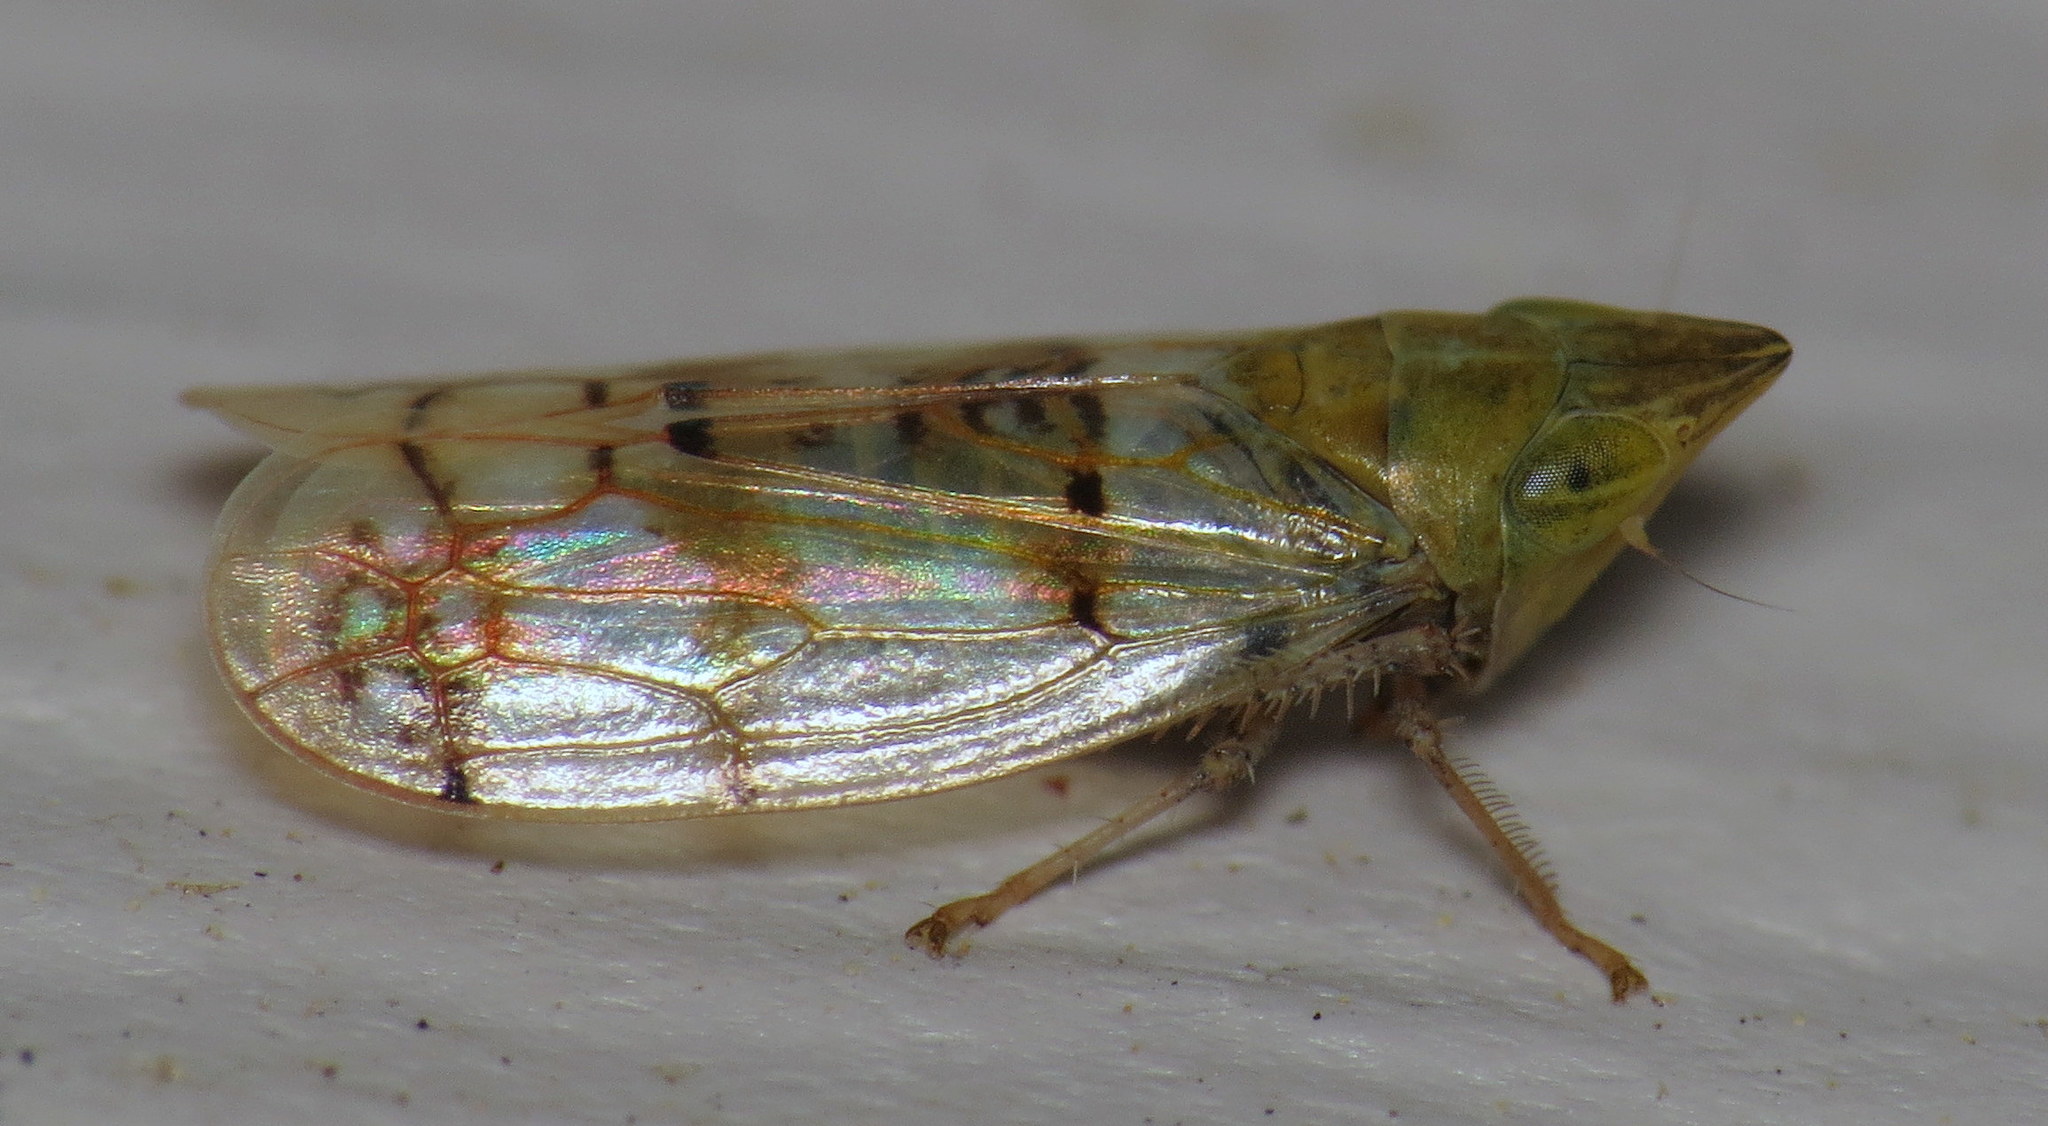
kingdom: Animalia
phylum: Arthropoda
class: Insecta
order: Hemiptera
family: Cicadellidae
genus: Japananus
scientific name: Japananus hyalinus
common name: The japanese maple leafhopper
